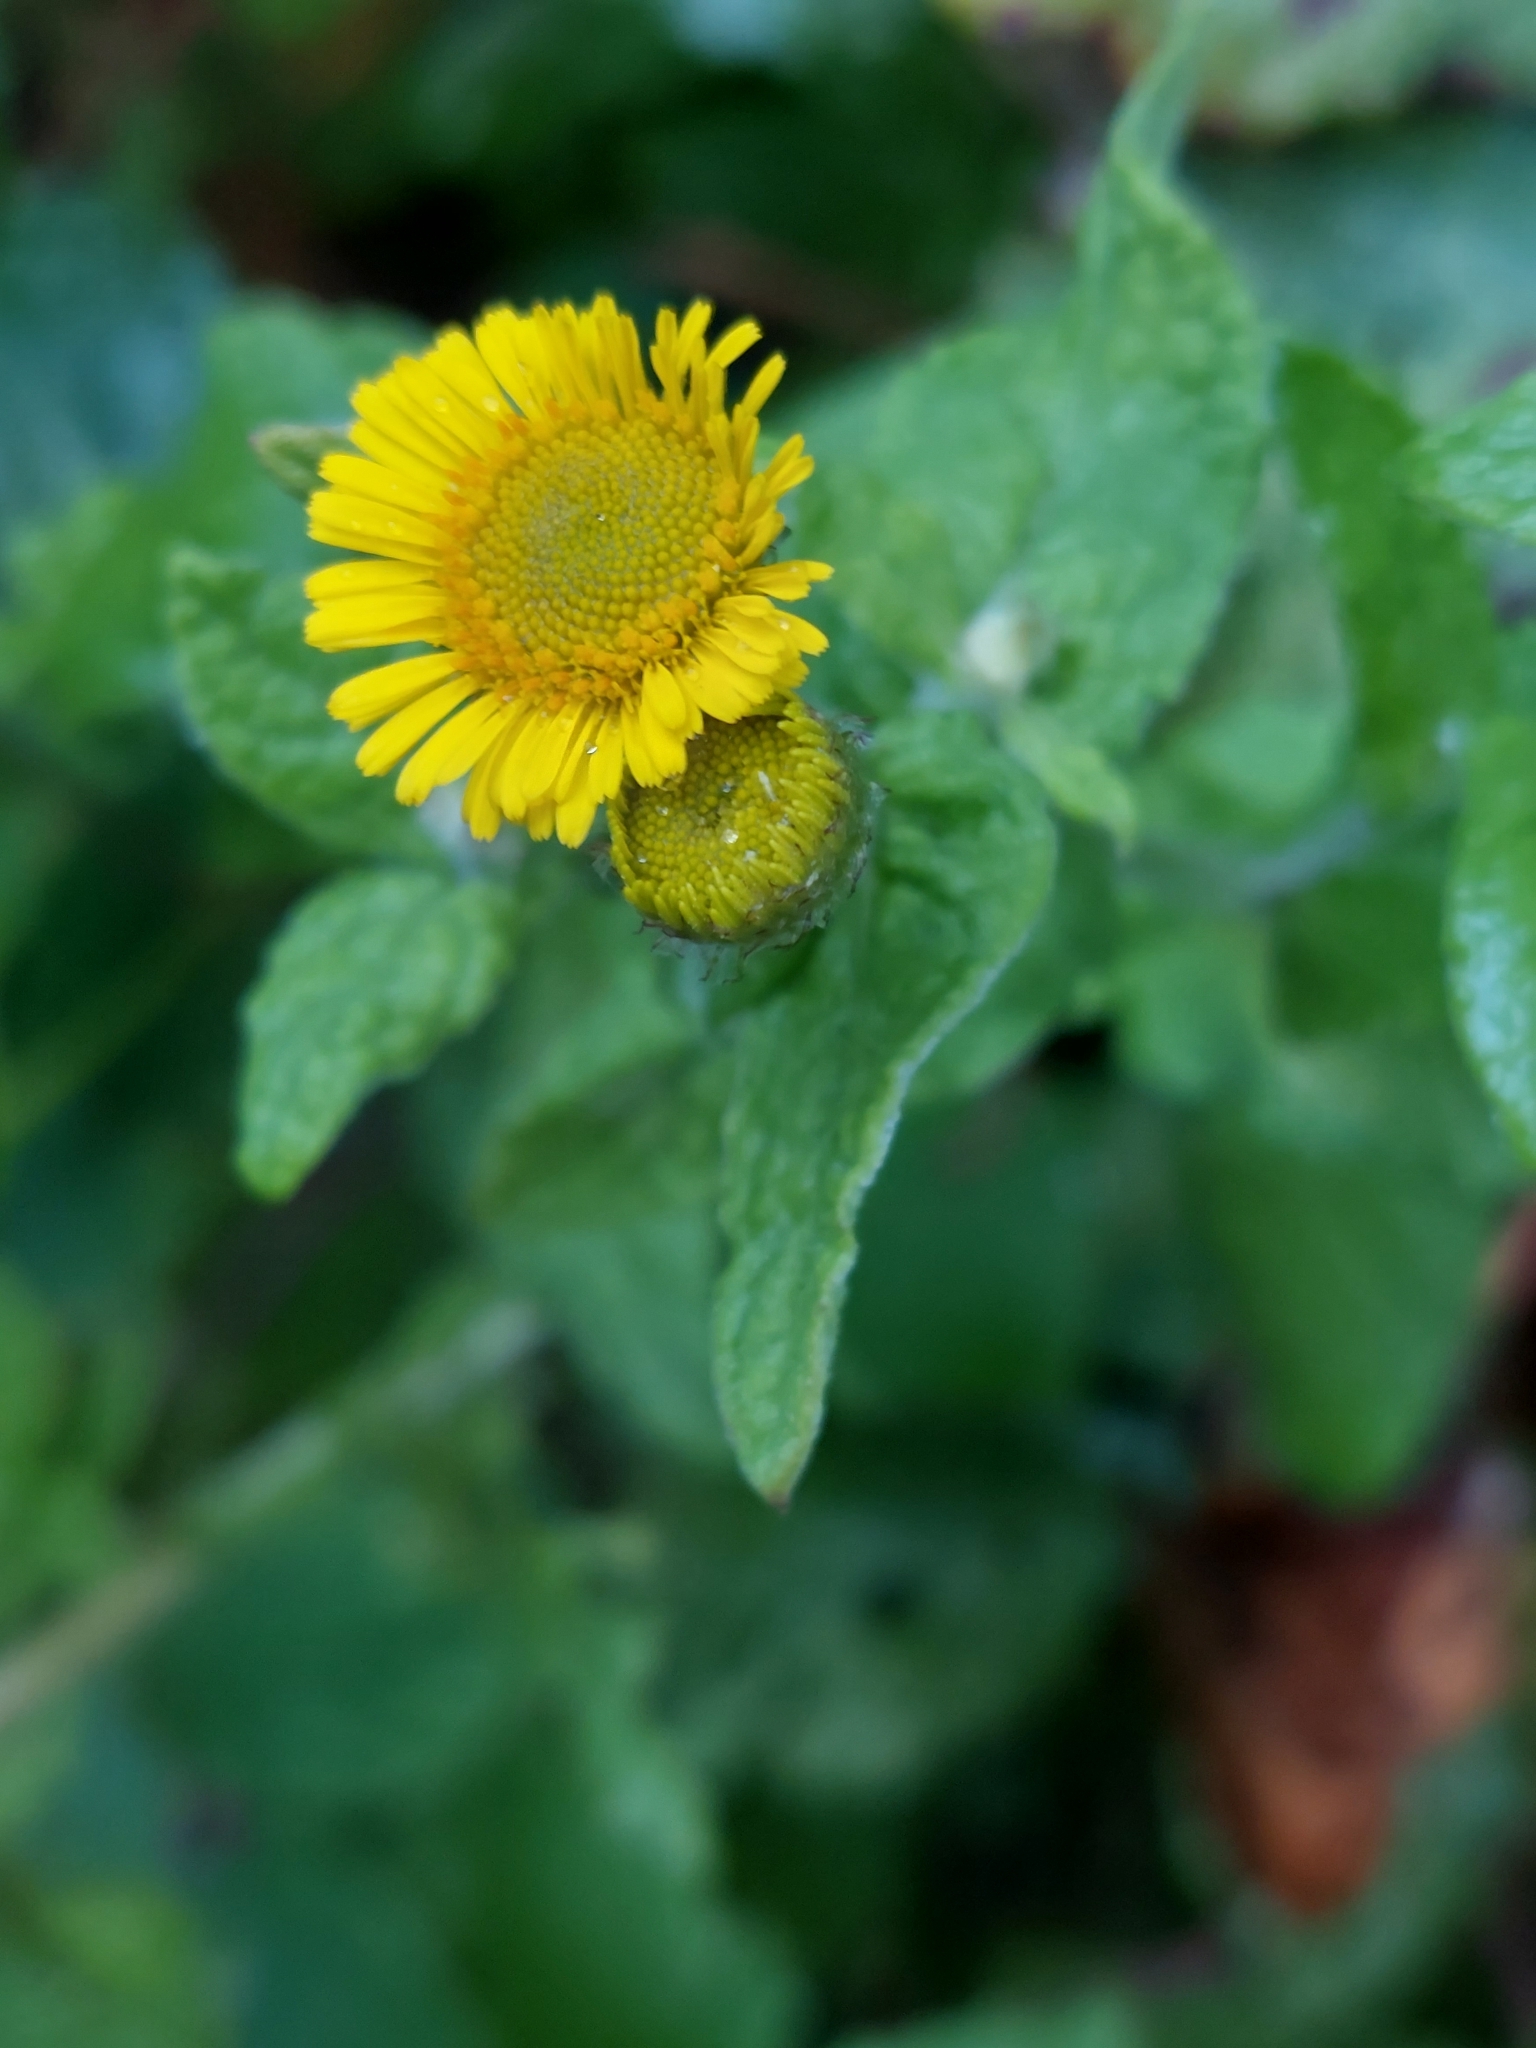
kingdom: Plantae
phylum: Tracheophyta
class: Magnoliopsida
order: Asterales
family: Asteraceae
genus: Pulicaria
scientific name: Pulicaria dysenterica
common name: Common fleabane
